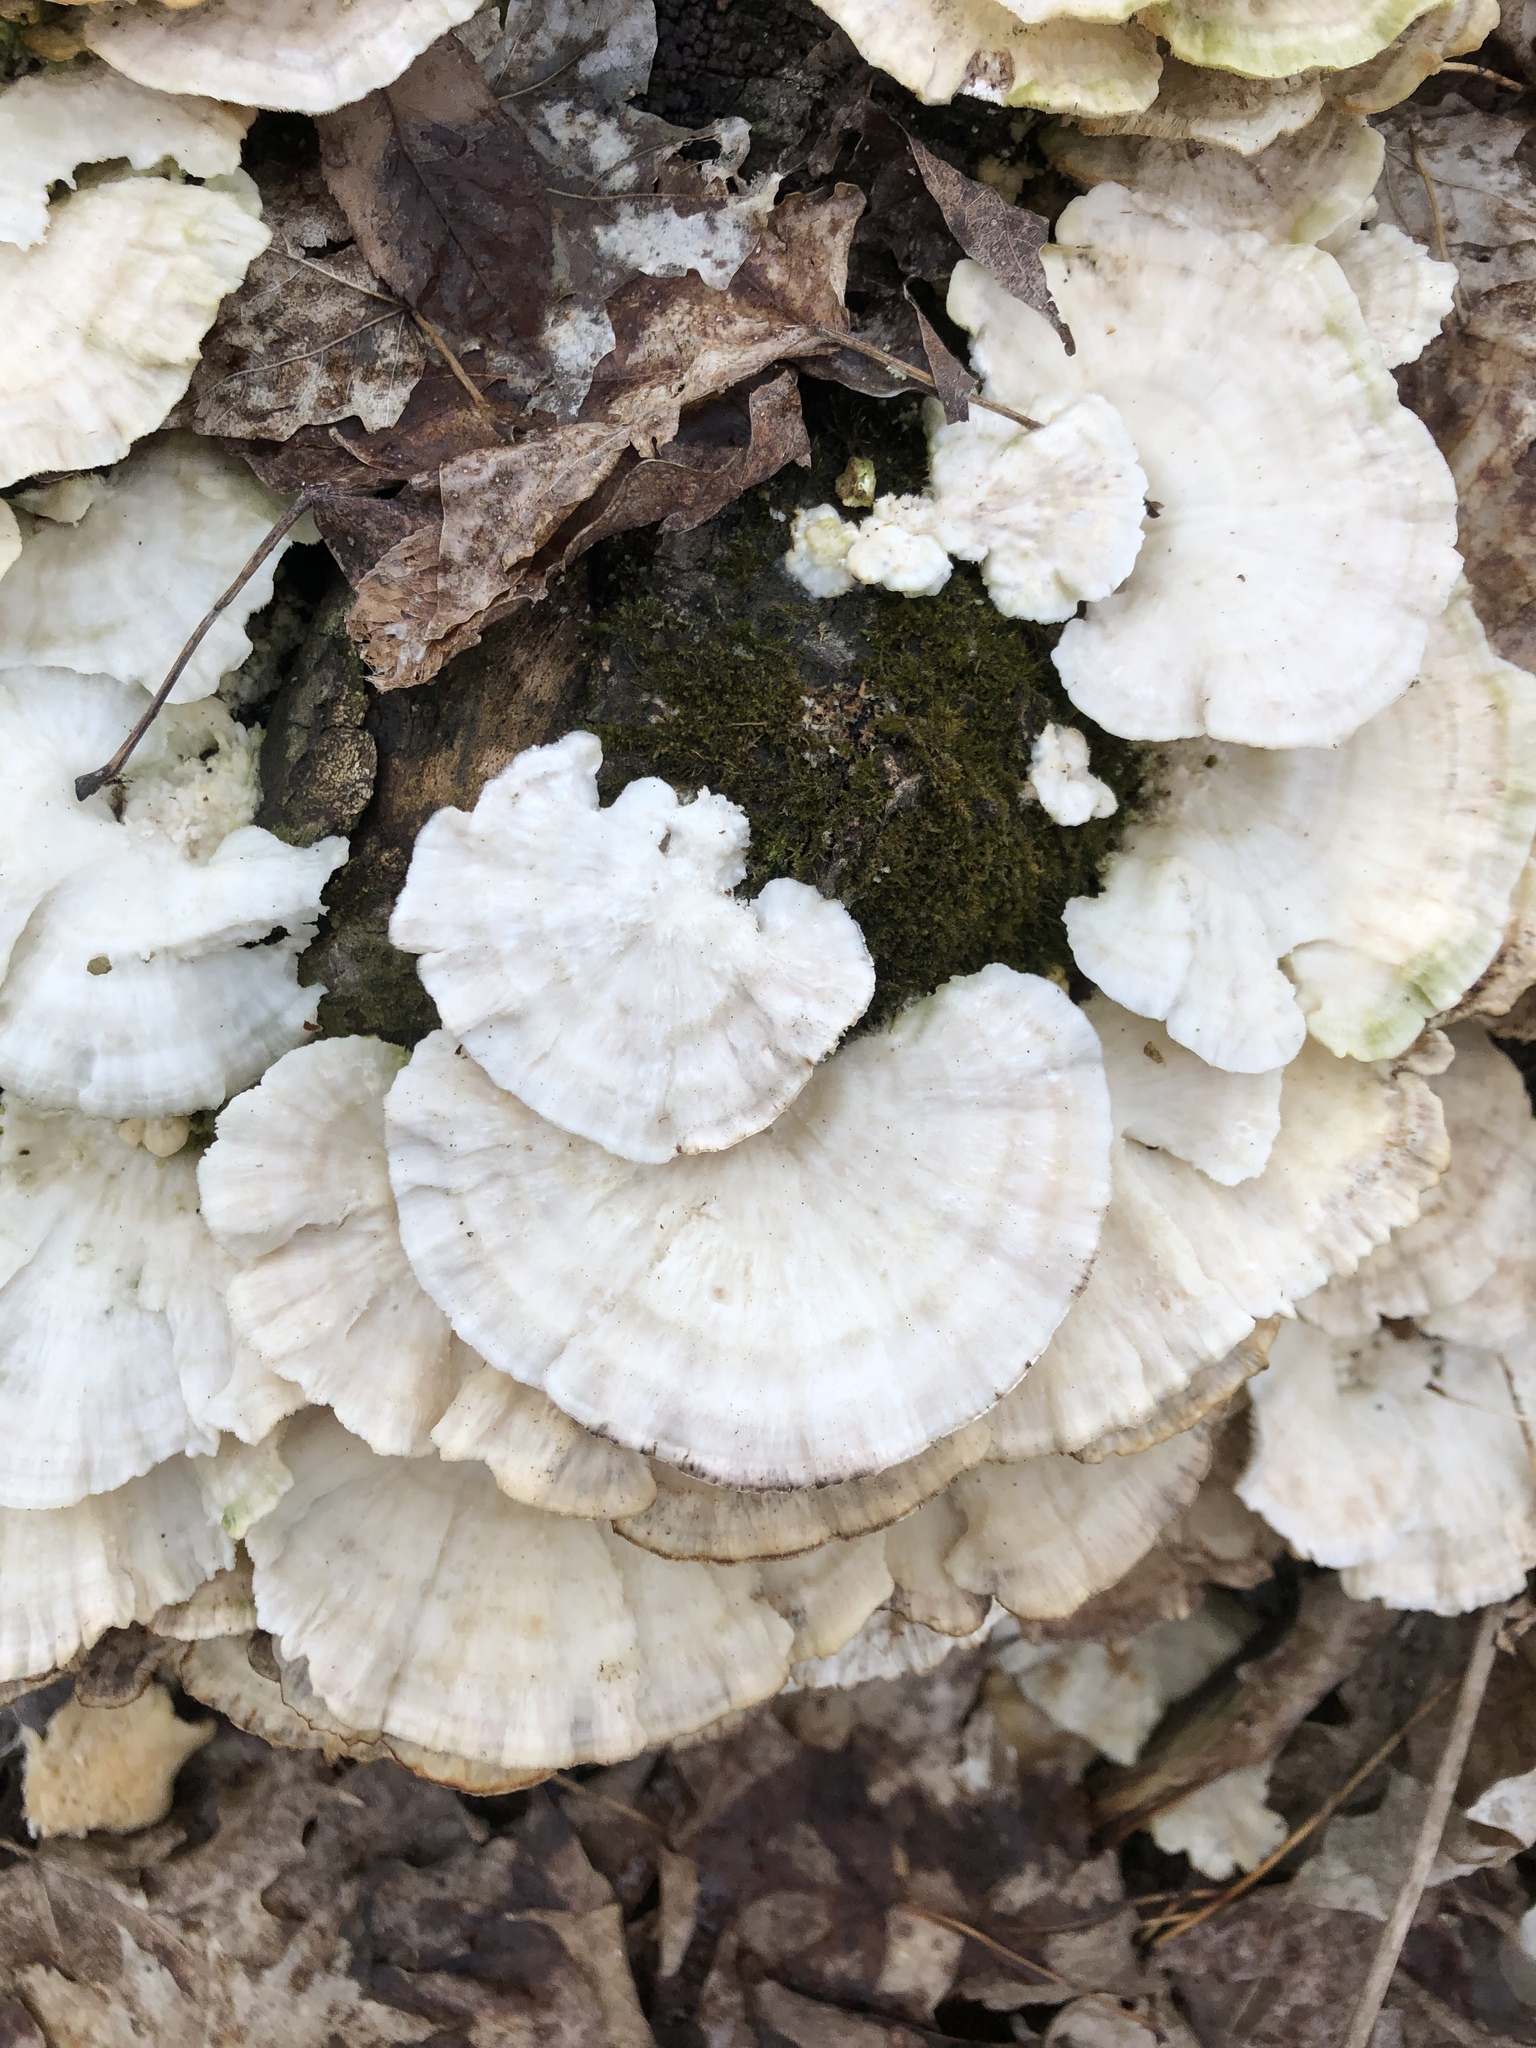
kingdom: Fungi
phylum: Basidiomycota
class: Agaricomycetes
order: Polyporales
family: Polyporaceae
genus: Trametes
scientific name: Trametes elegans
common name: White maze polypore
